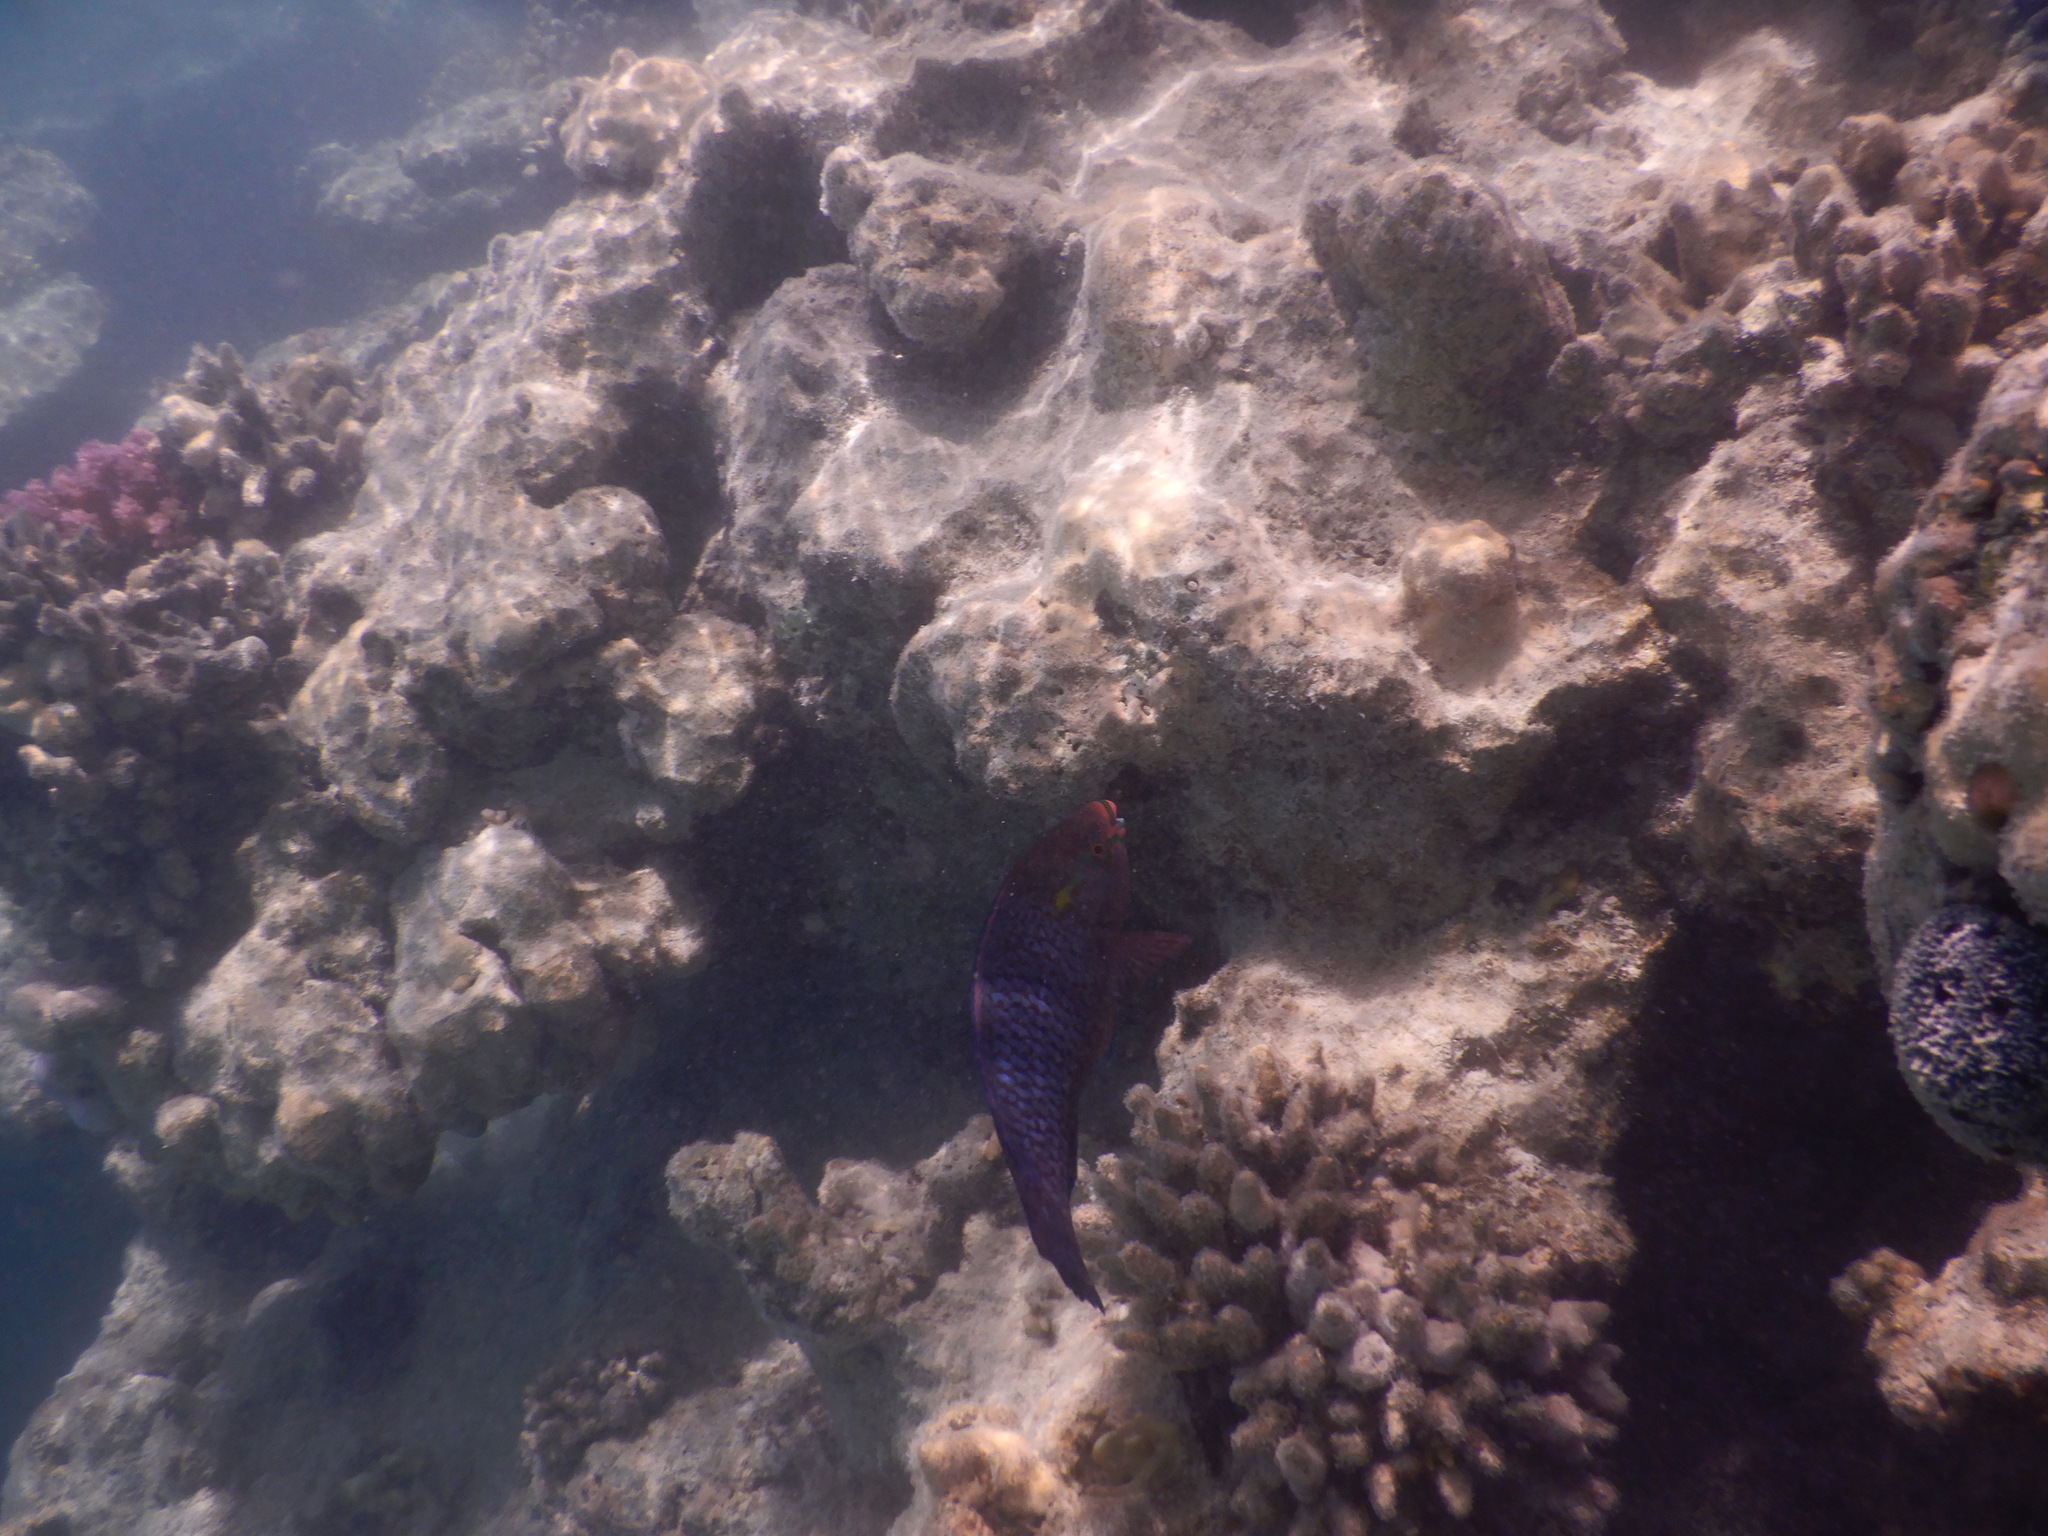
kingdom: Animalia
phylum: Chordata
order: Perciformes
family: Scaridae
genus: Scarus
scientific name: Scarus niger
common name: Dusky parrotfish
